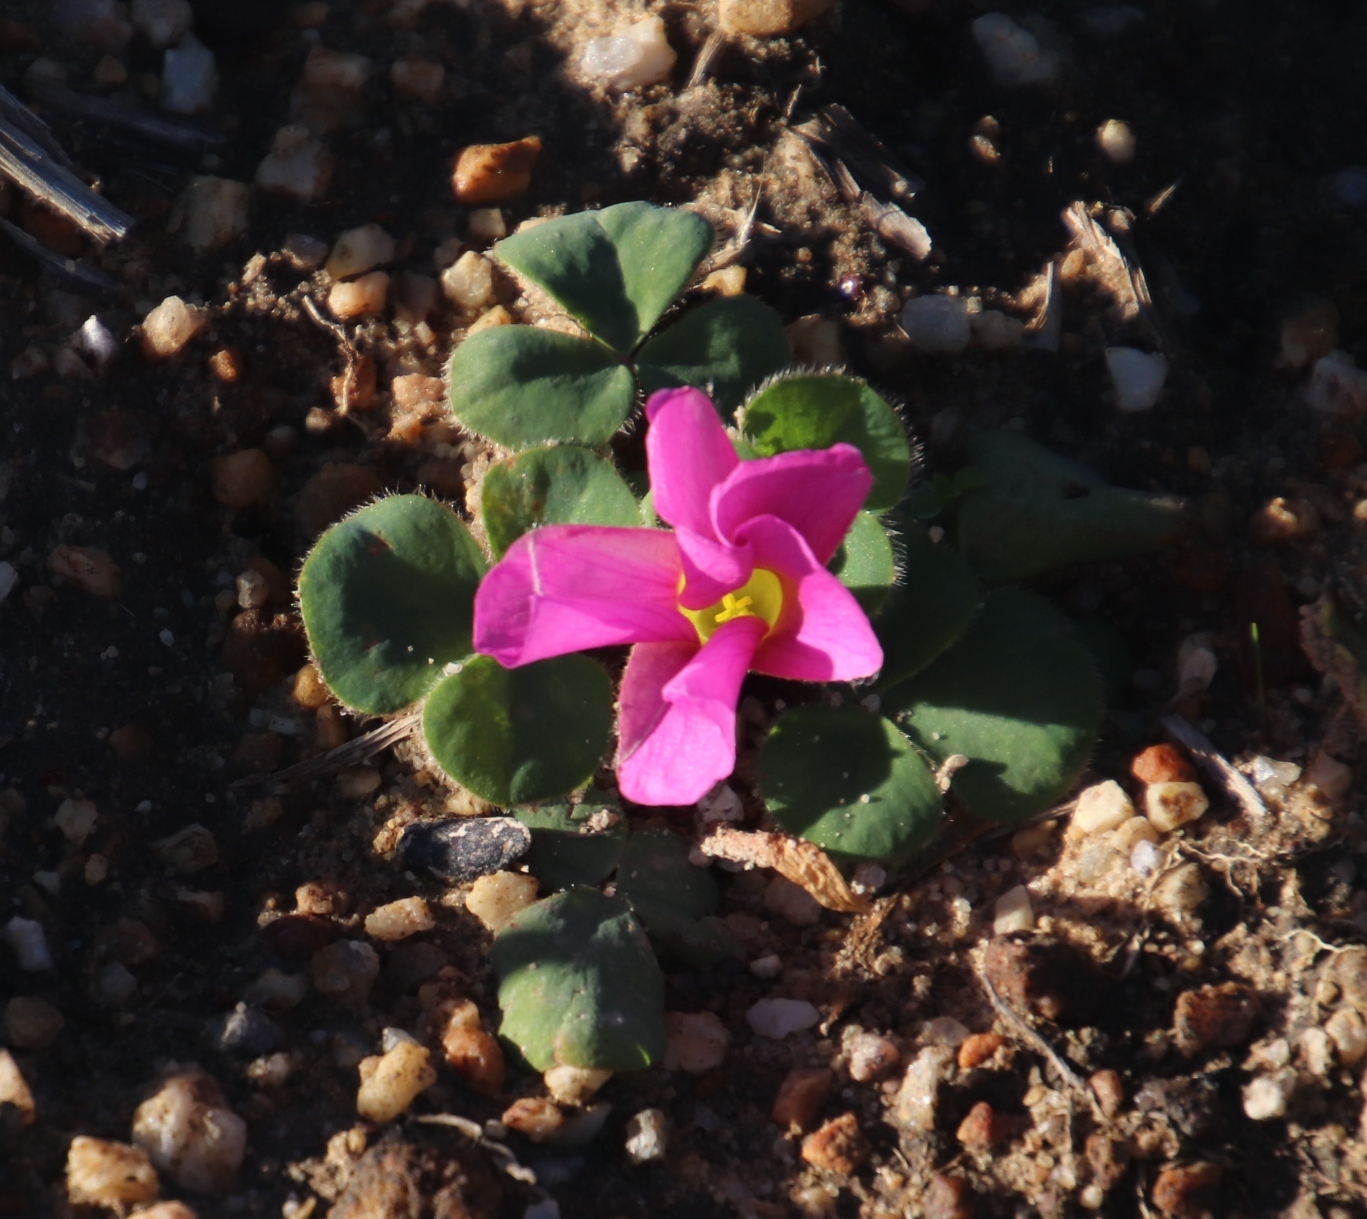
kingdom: Plantae
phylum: Tracheophyta
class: Magnoliopsida
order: Oxalidales
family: Oxalidaceae
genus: Oxalis
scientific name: Oxalis purpurea
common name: Purple woodsorrel
